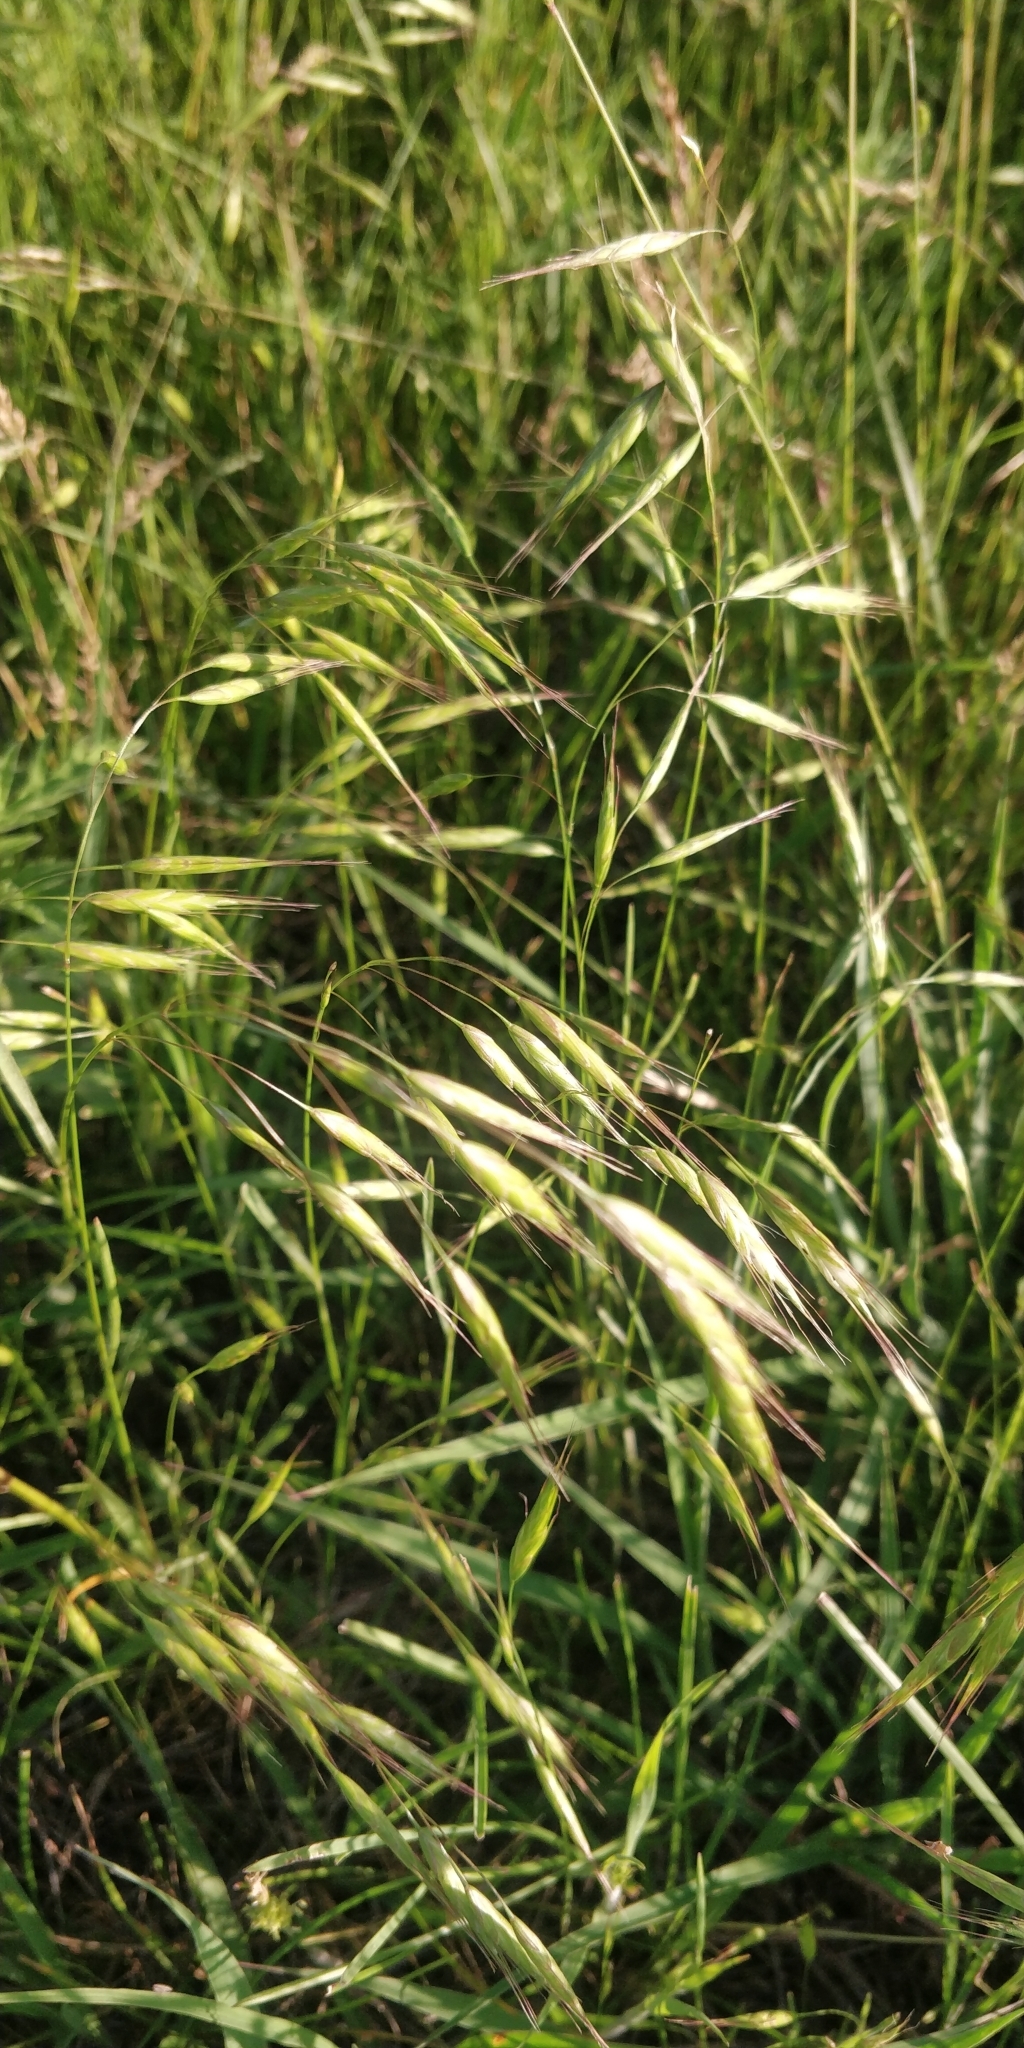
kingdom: Plantae
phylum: Tracheophyta
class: Liliopsida
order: Poales
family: Poaceae
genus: Bromus
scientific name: Bromus japonicus
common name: Japanese brome
